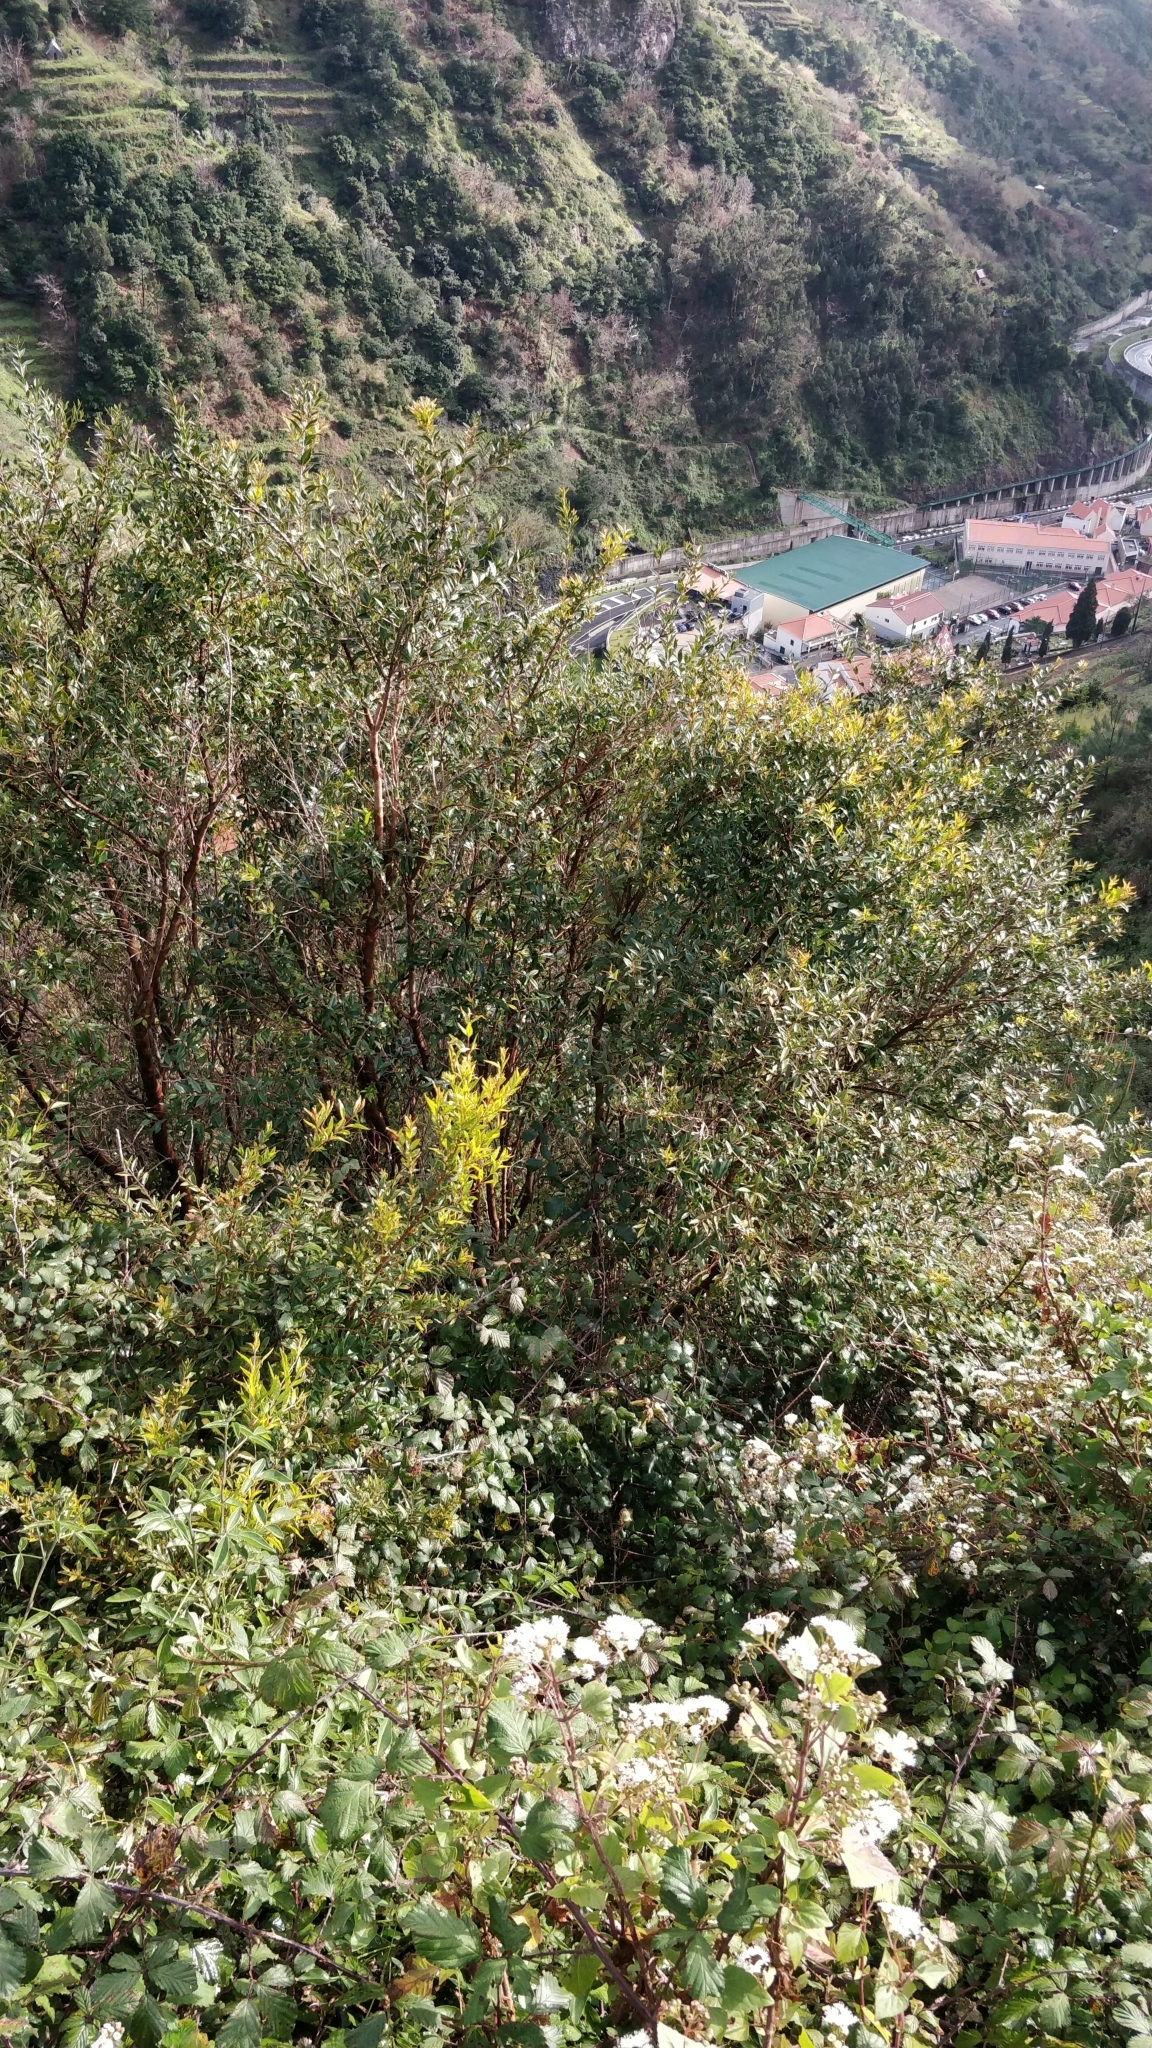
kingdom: Plantae
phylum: Tracheophyta
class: Magnoliopsida
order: Myrtales
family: Myrtaceae
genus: Myrtus
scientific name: Myrtus communis
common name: Myrtle
